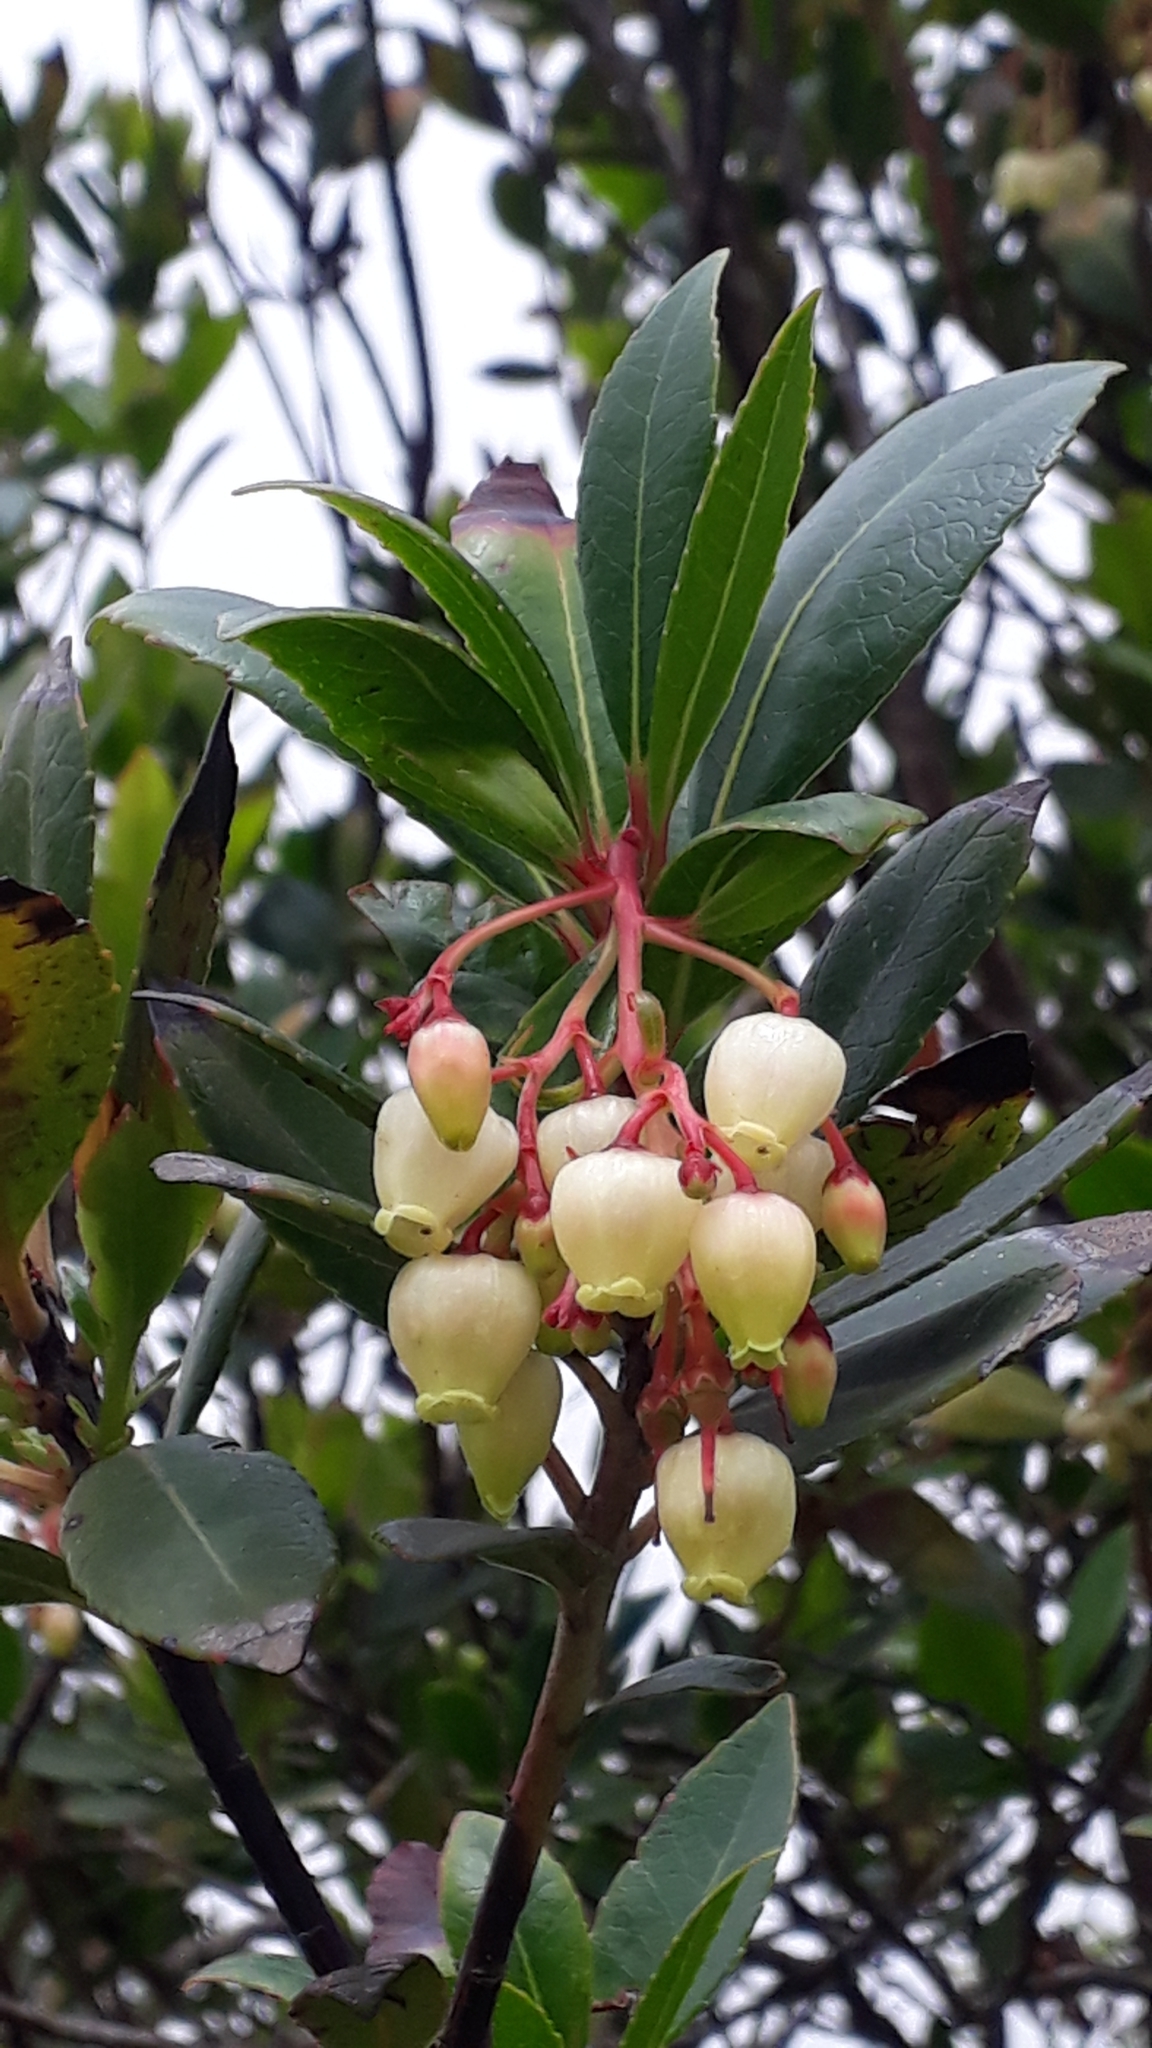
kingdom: Plantae
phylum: Tracheophyta
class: Magnoliopsida
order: Ericales
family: Ericaceae
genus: Arbutus
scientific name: Arbutus unedo
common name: Strawberry-tree
